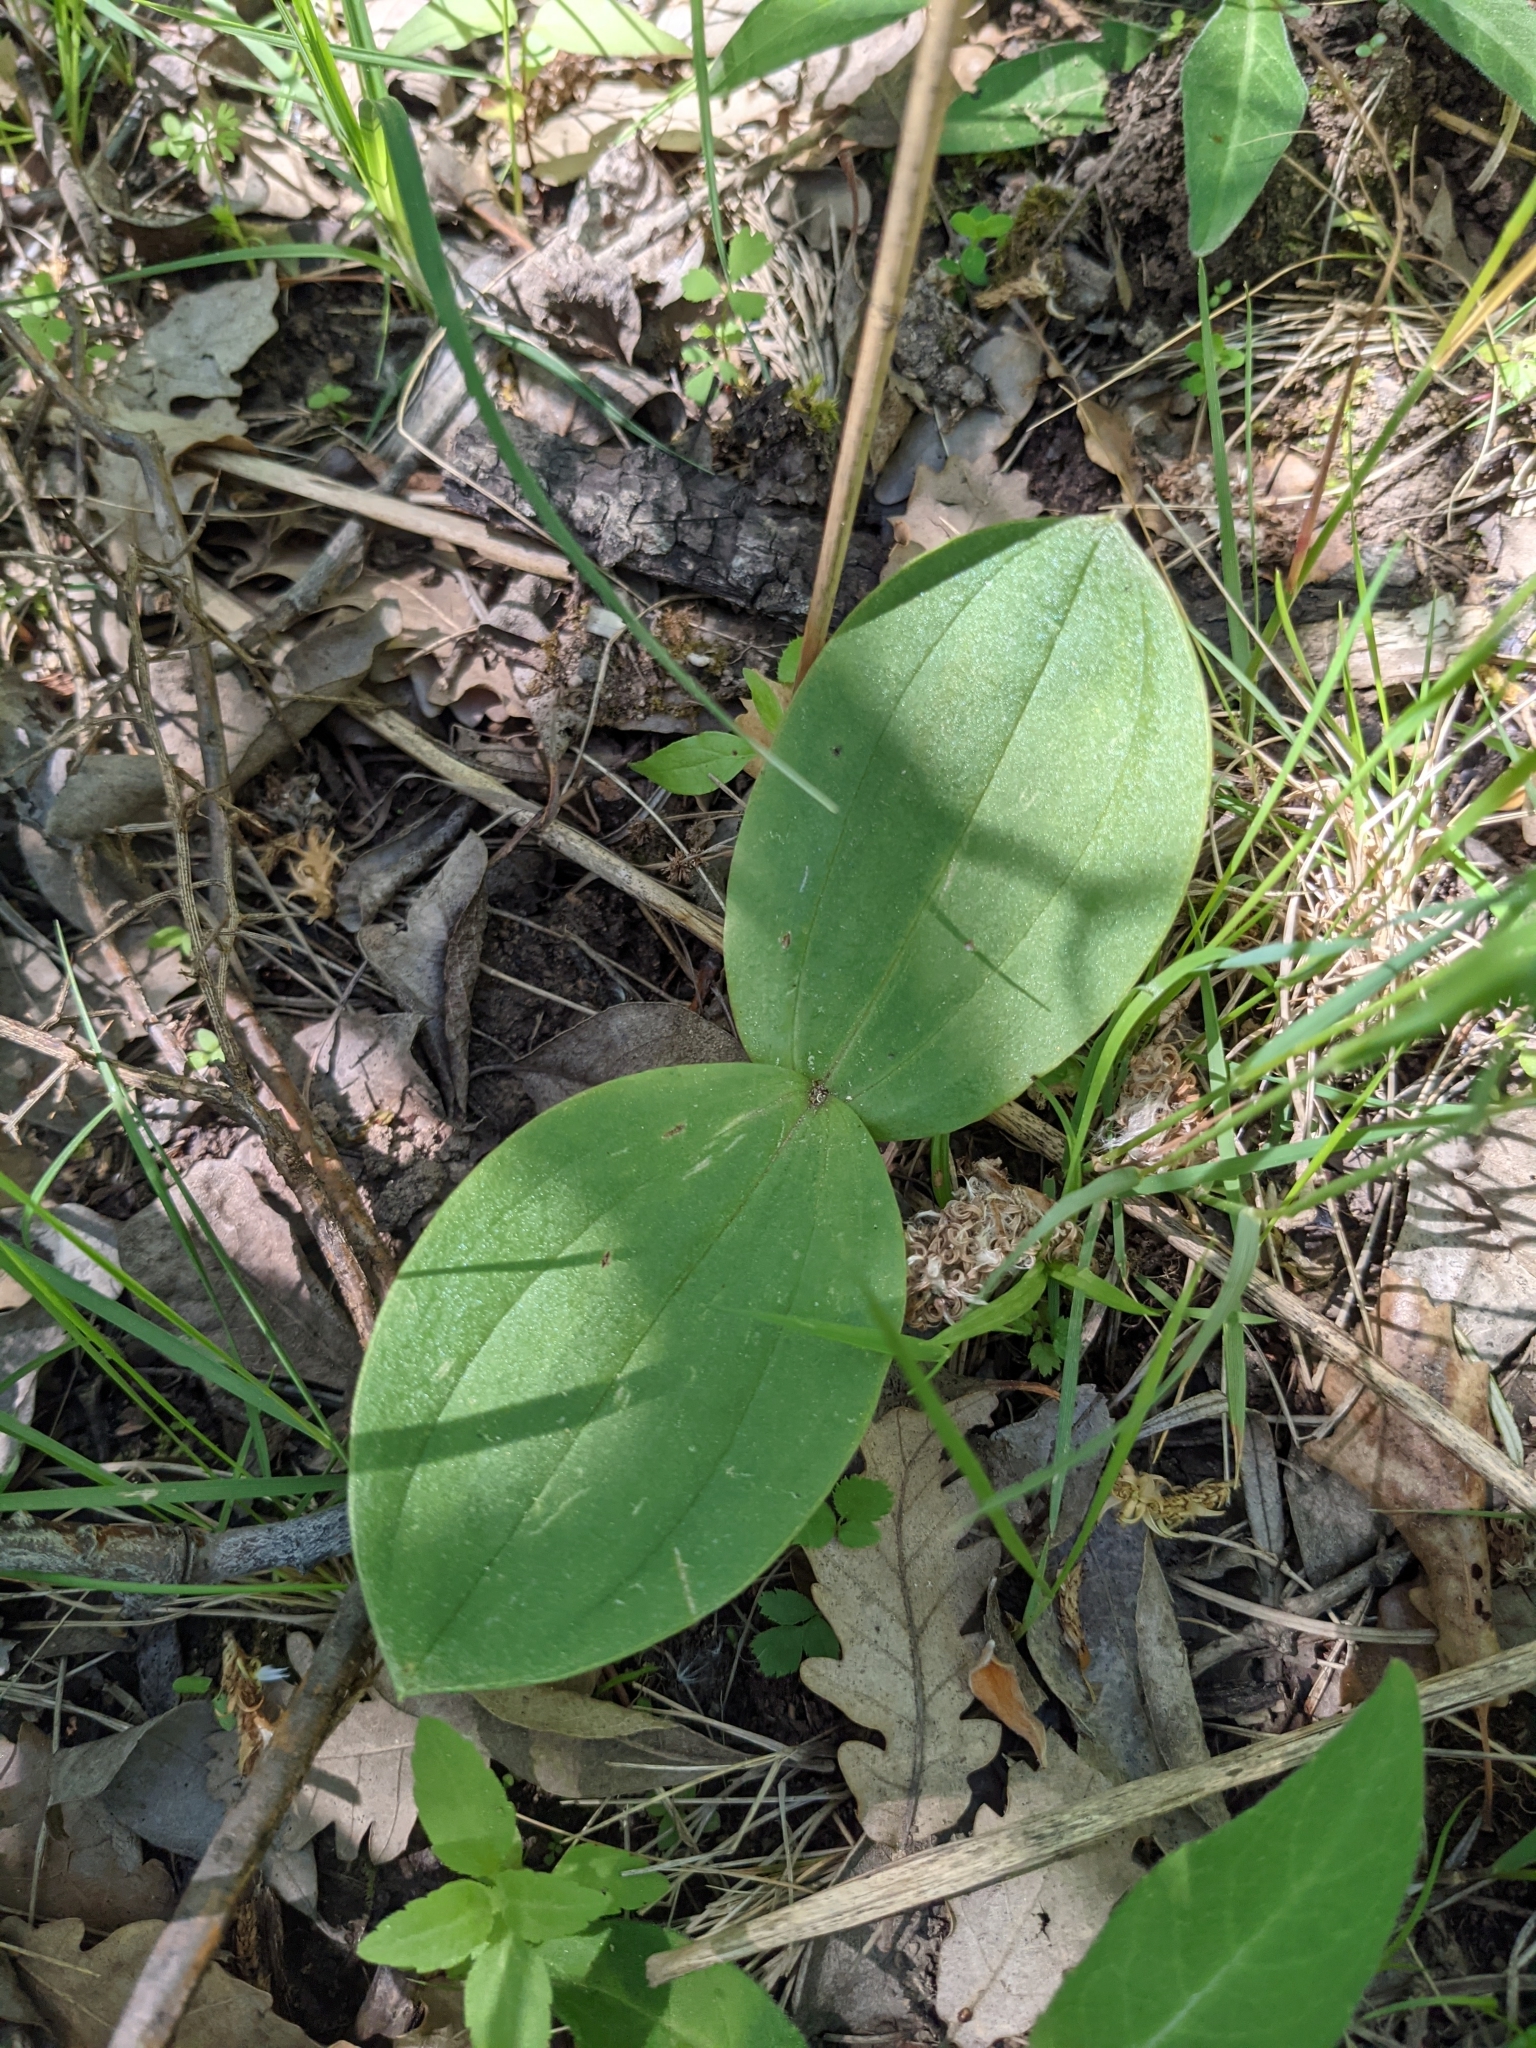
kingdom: Plantae
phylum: Tracheophyta
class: Liliopsida
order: Asparagales
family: Orchidaceae
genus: Neottia
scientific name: Neottia ovata
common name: Common twayblade
